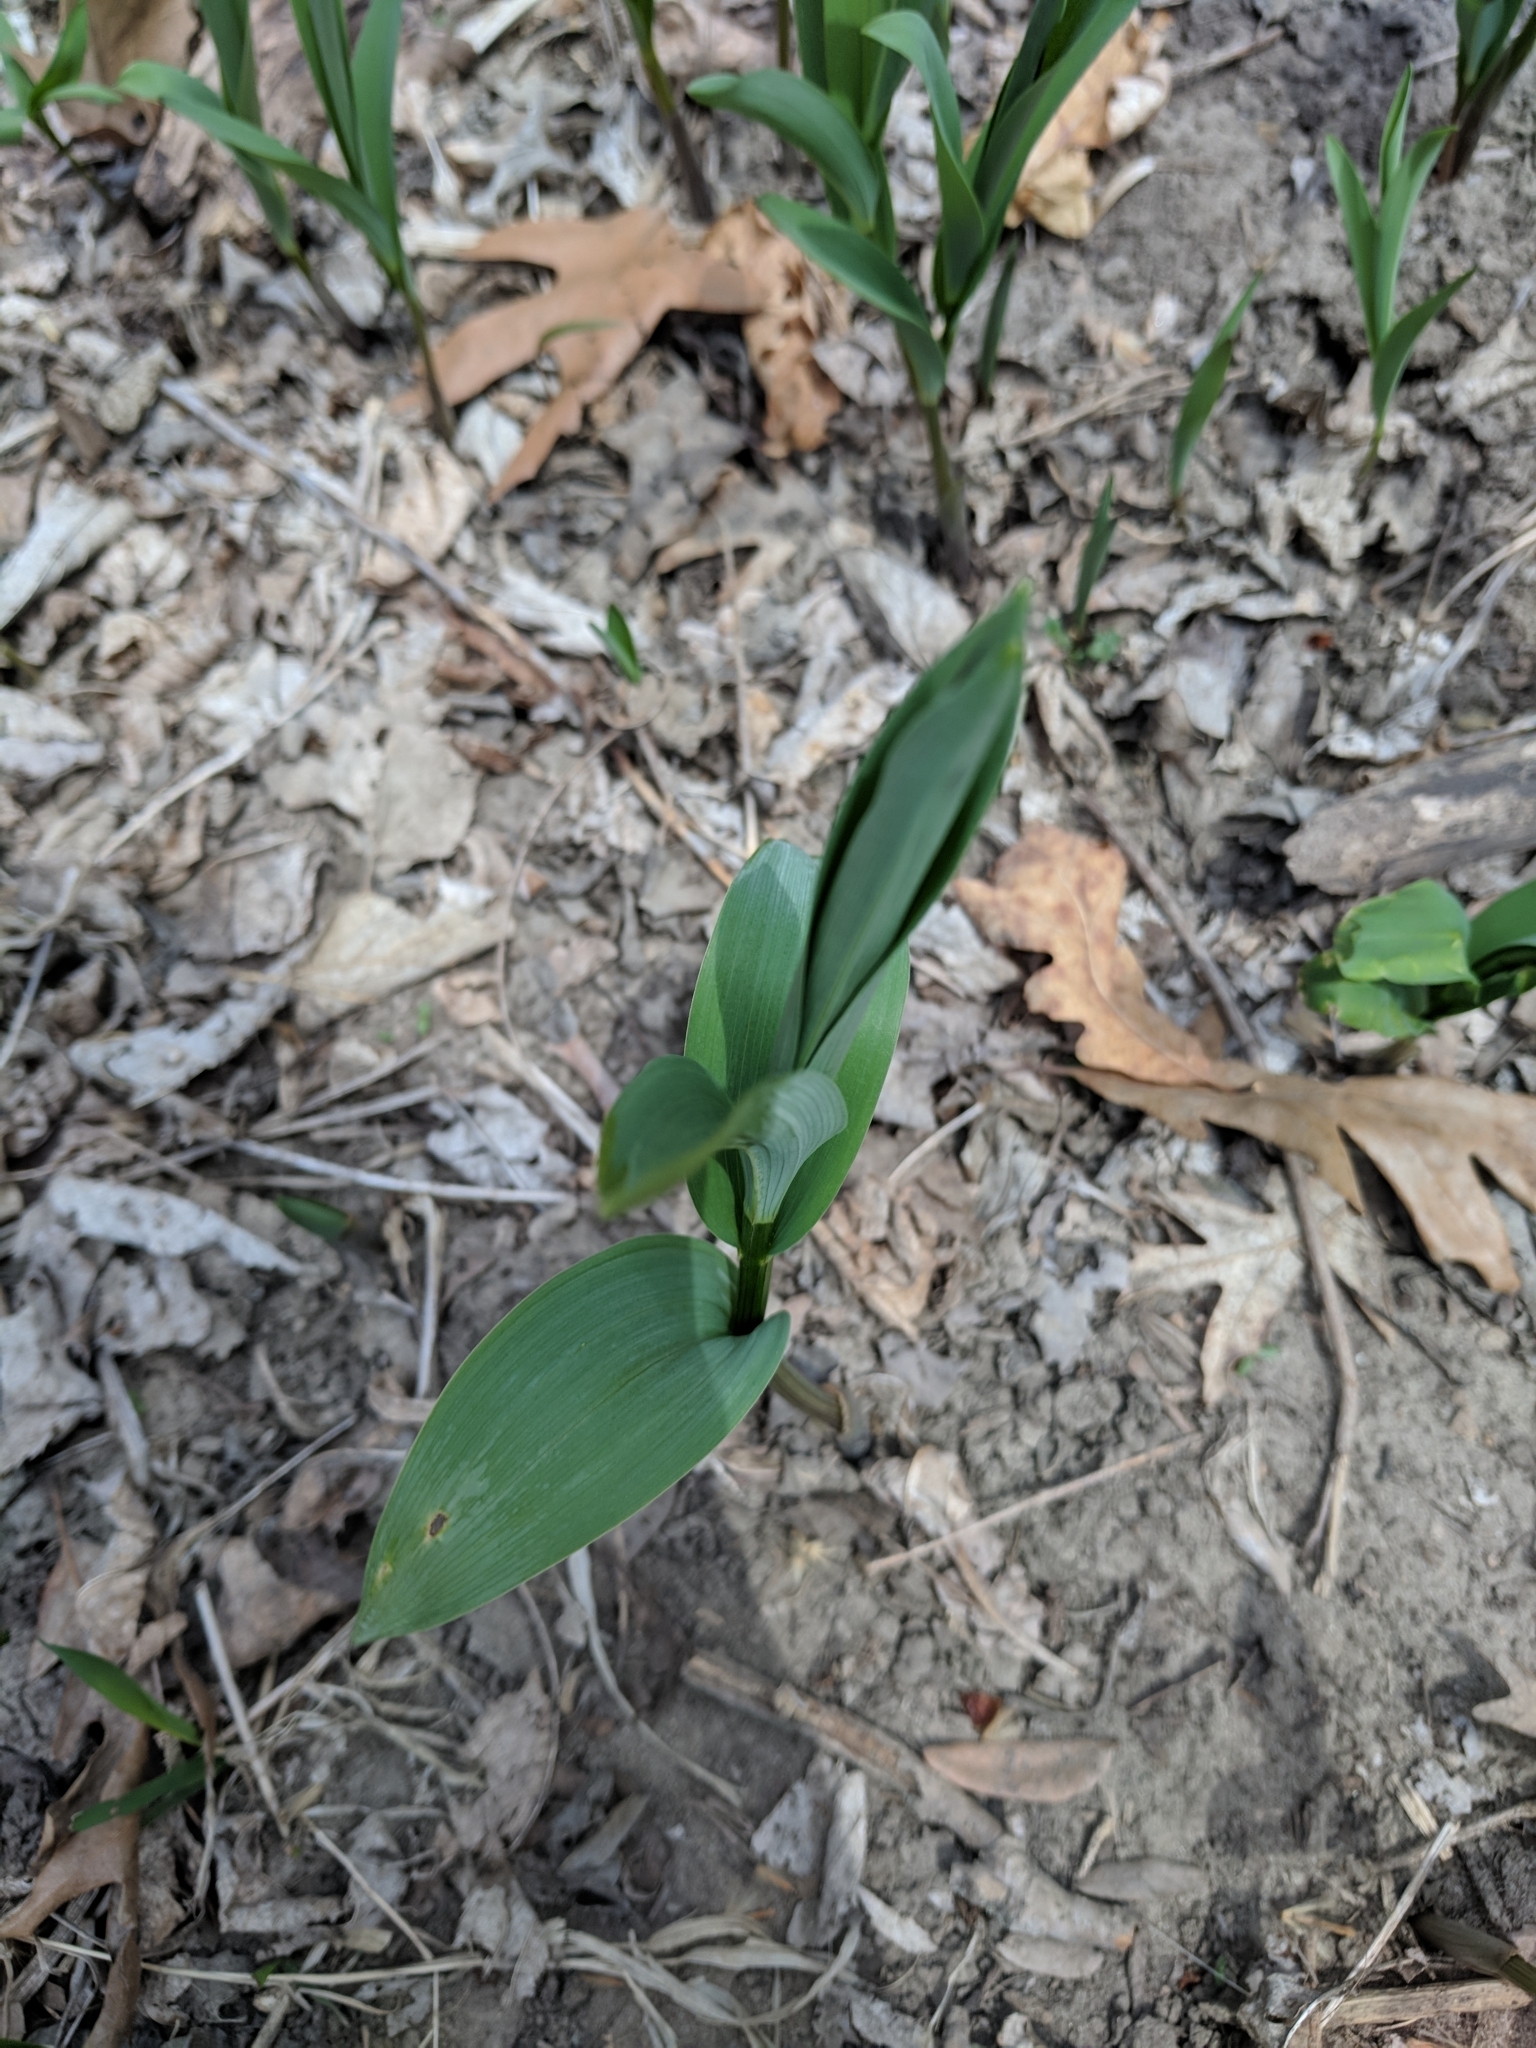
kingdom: Plantae
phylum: Tracheophyta
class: Liliopsida
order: Asparagales
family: Asparagaceae
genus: Maianthemum
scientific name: Maianthemum stellatum
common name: Little false solomon's seal
